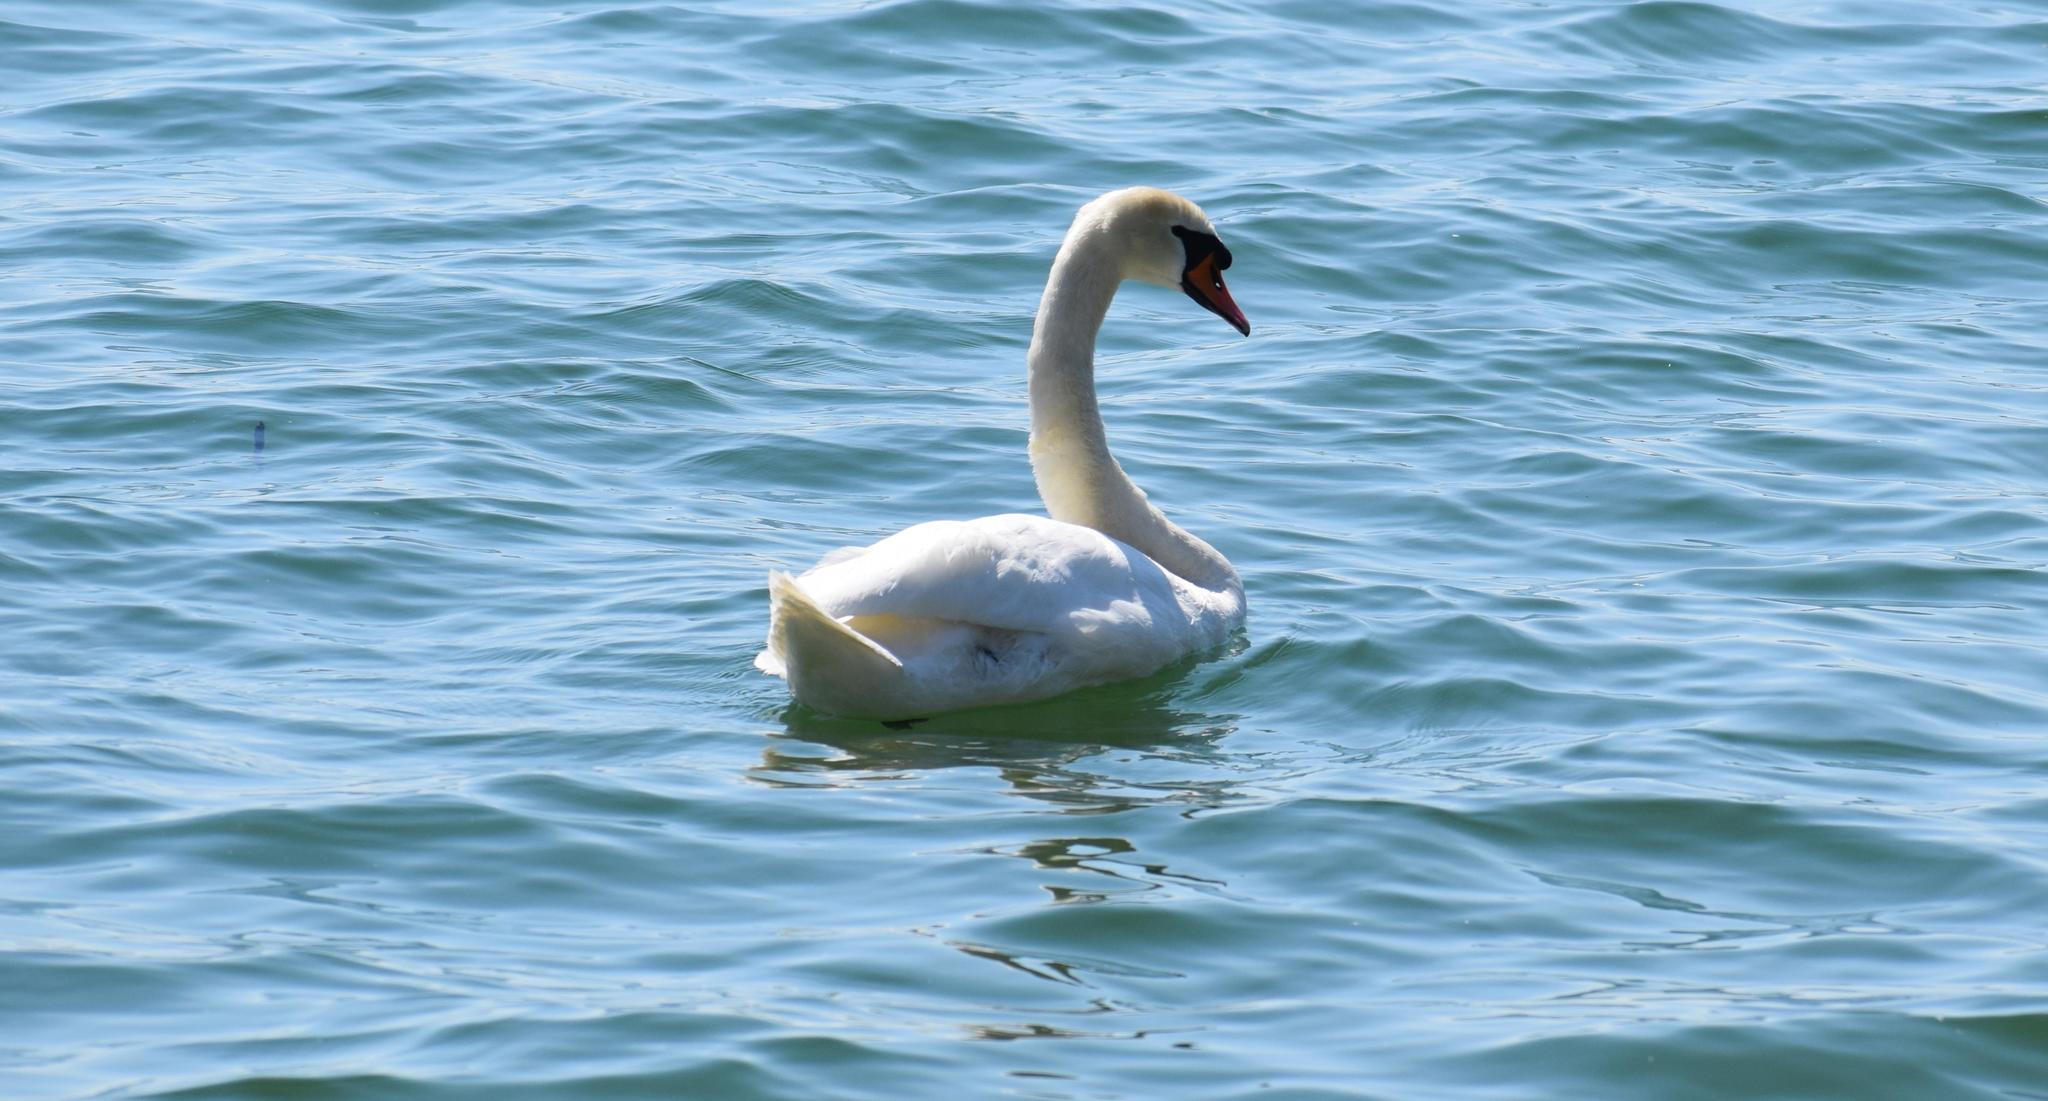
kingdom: Animalia
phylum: Chordata
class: Aves
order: Anseriformes
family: Anatidae
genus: Cygnus
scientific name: Cygnus olor
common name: Mute swan
